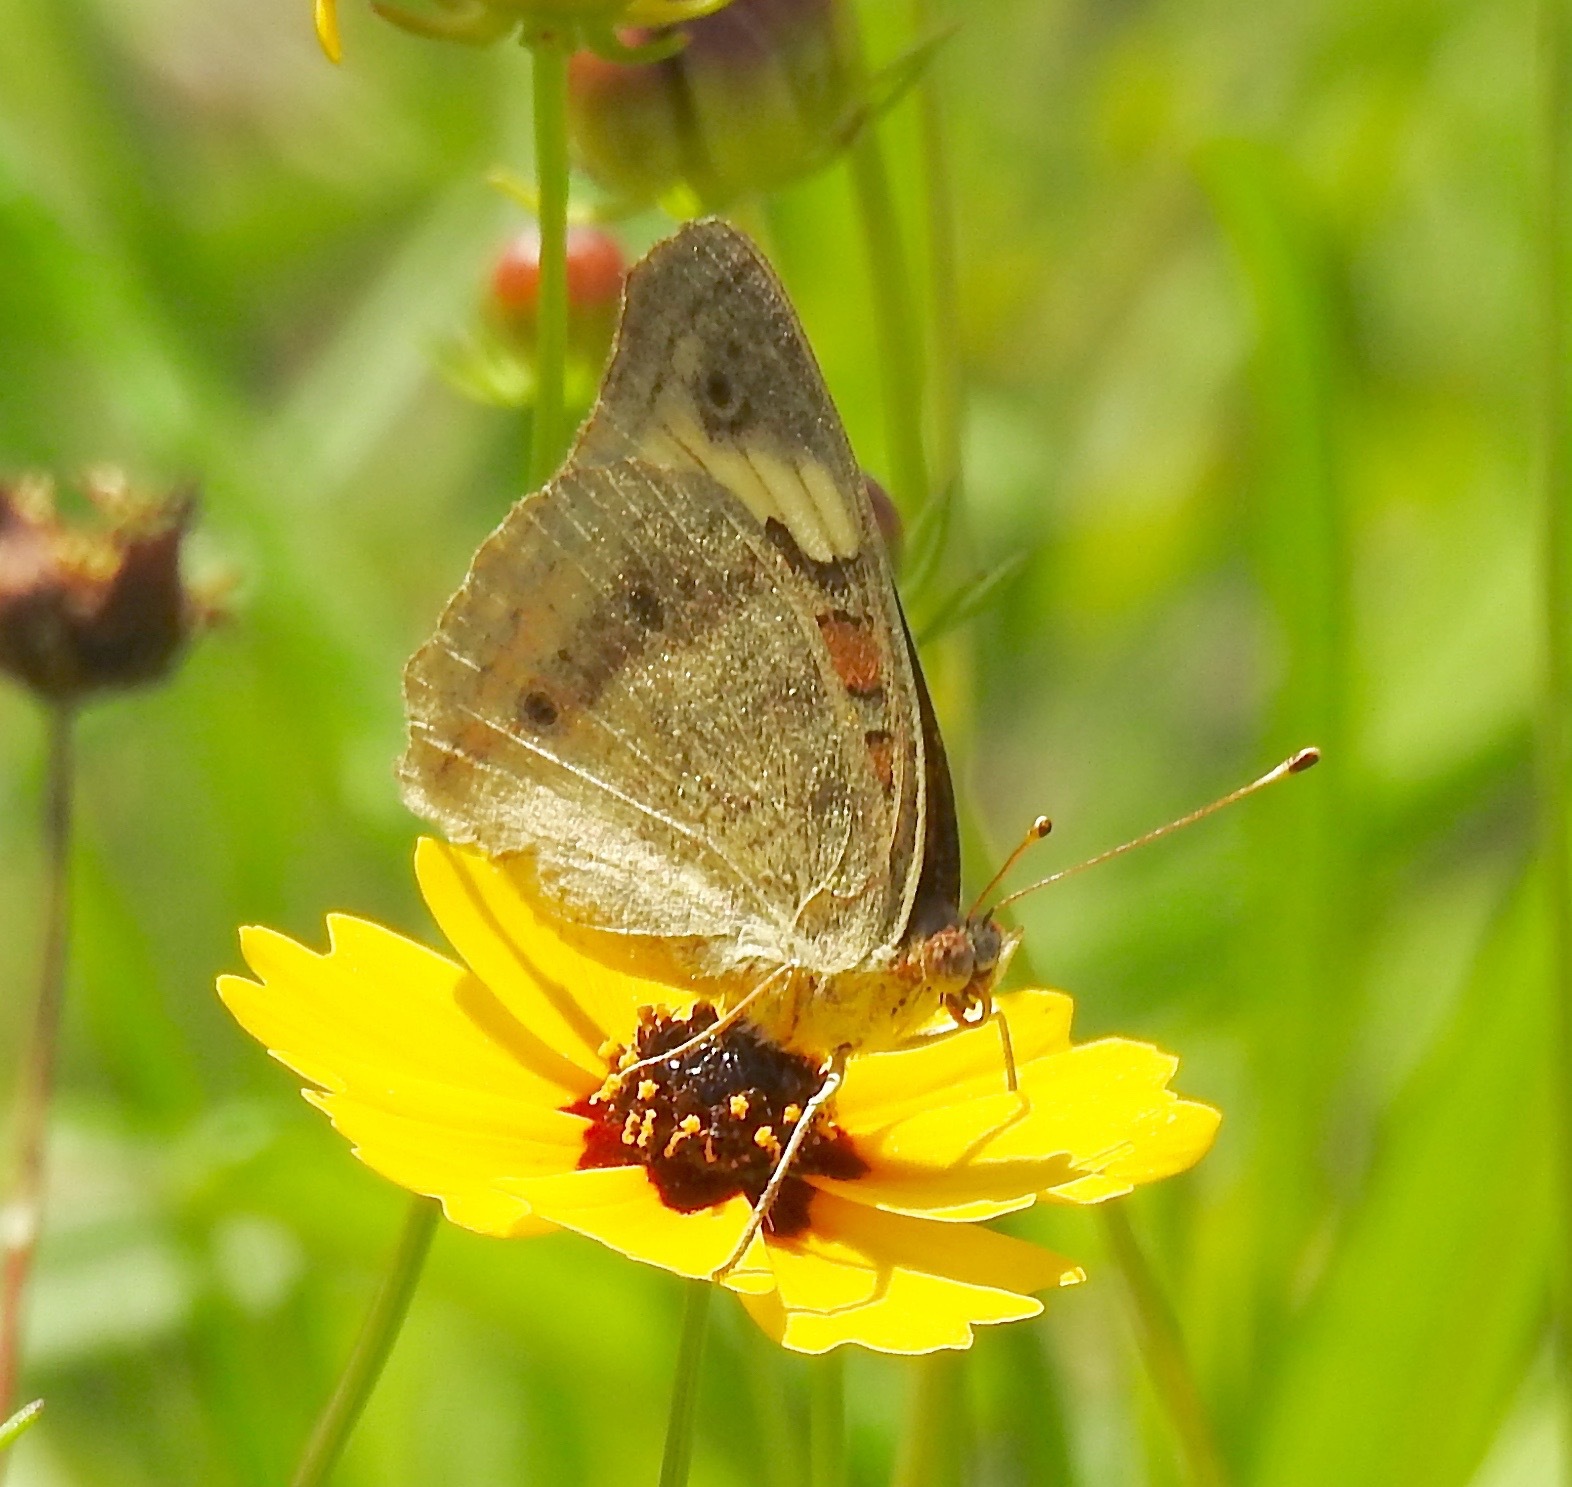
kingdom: Animalia
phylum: Arthropoda
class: Insecta
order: Lepidoptera
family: Nymphalidae
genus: Junonia
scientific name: Junonia coenia
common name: Common buckeye
